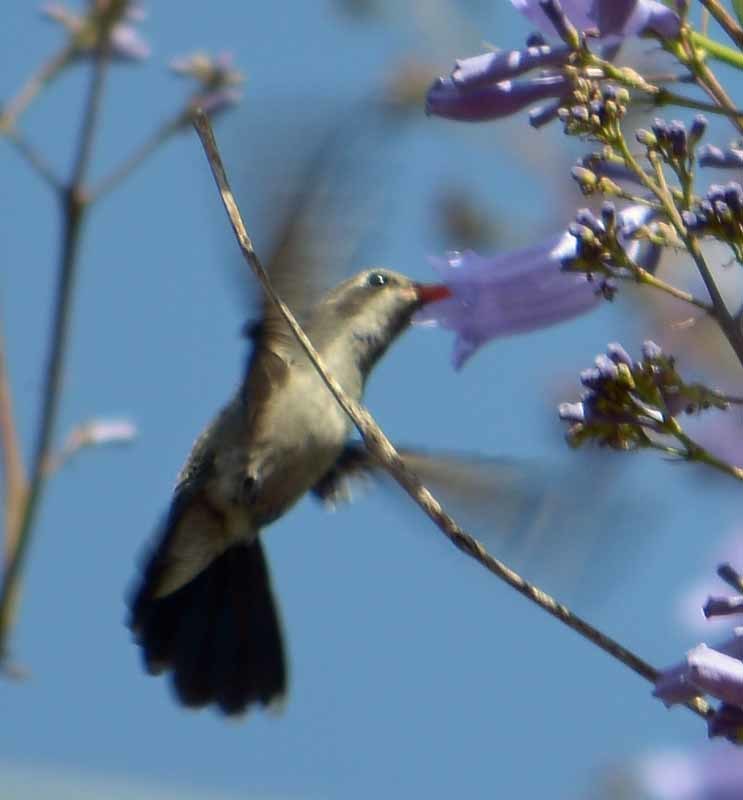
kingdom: Animalia
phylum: Chordata
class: Aves
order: Apodiformes
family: Trochilidae
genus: Cynanthus
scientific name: Cynanthus latirostris
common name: Broad-billed hummingbird
